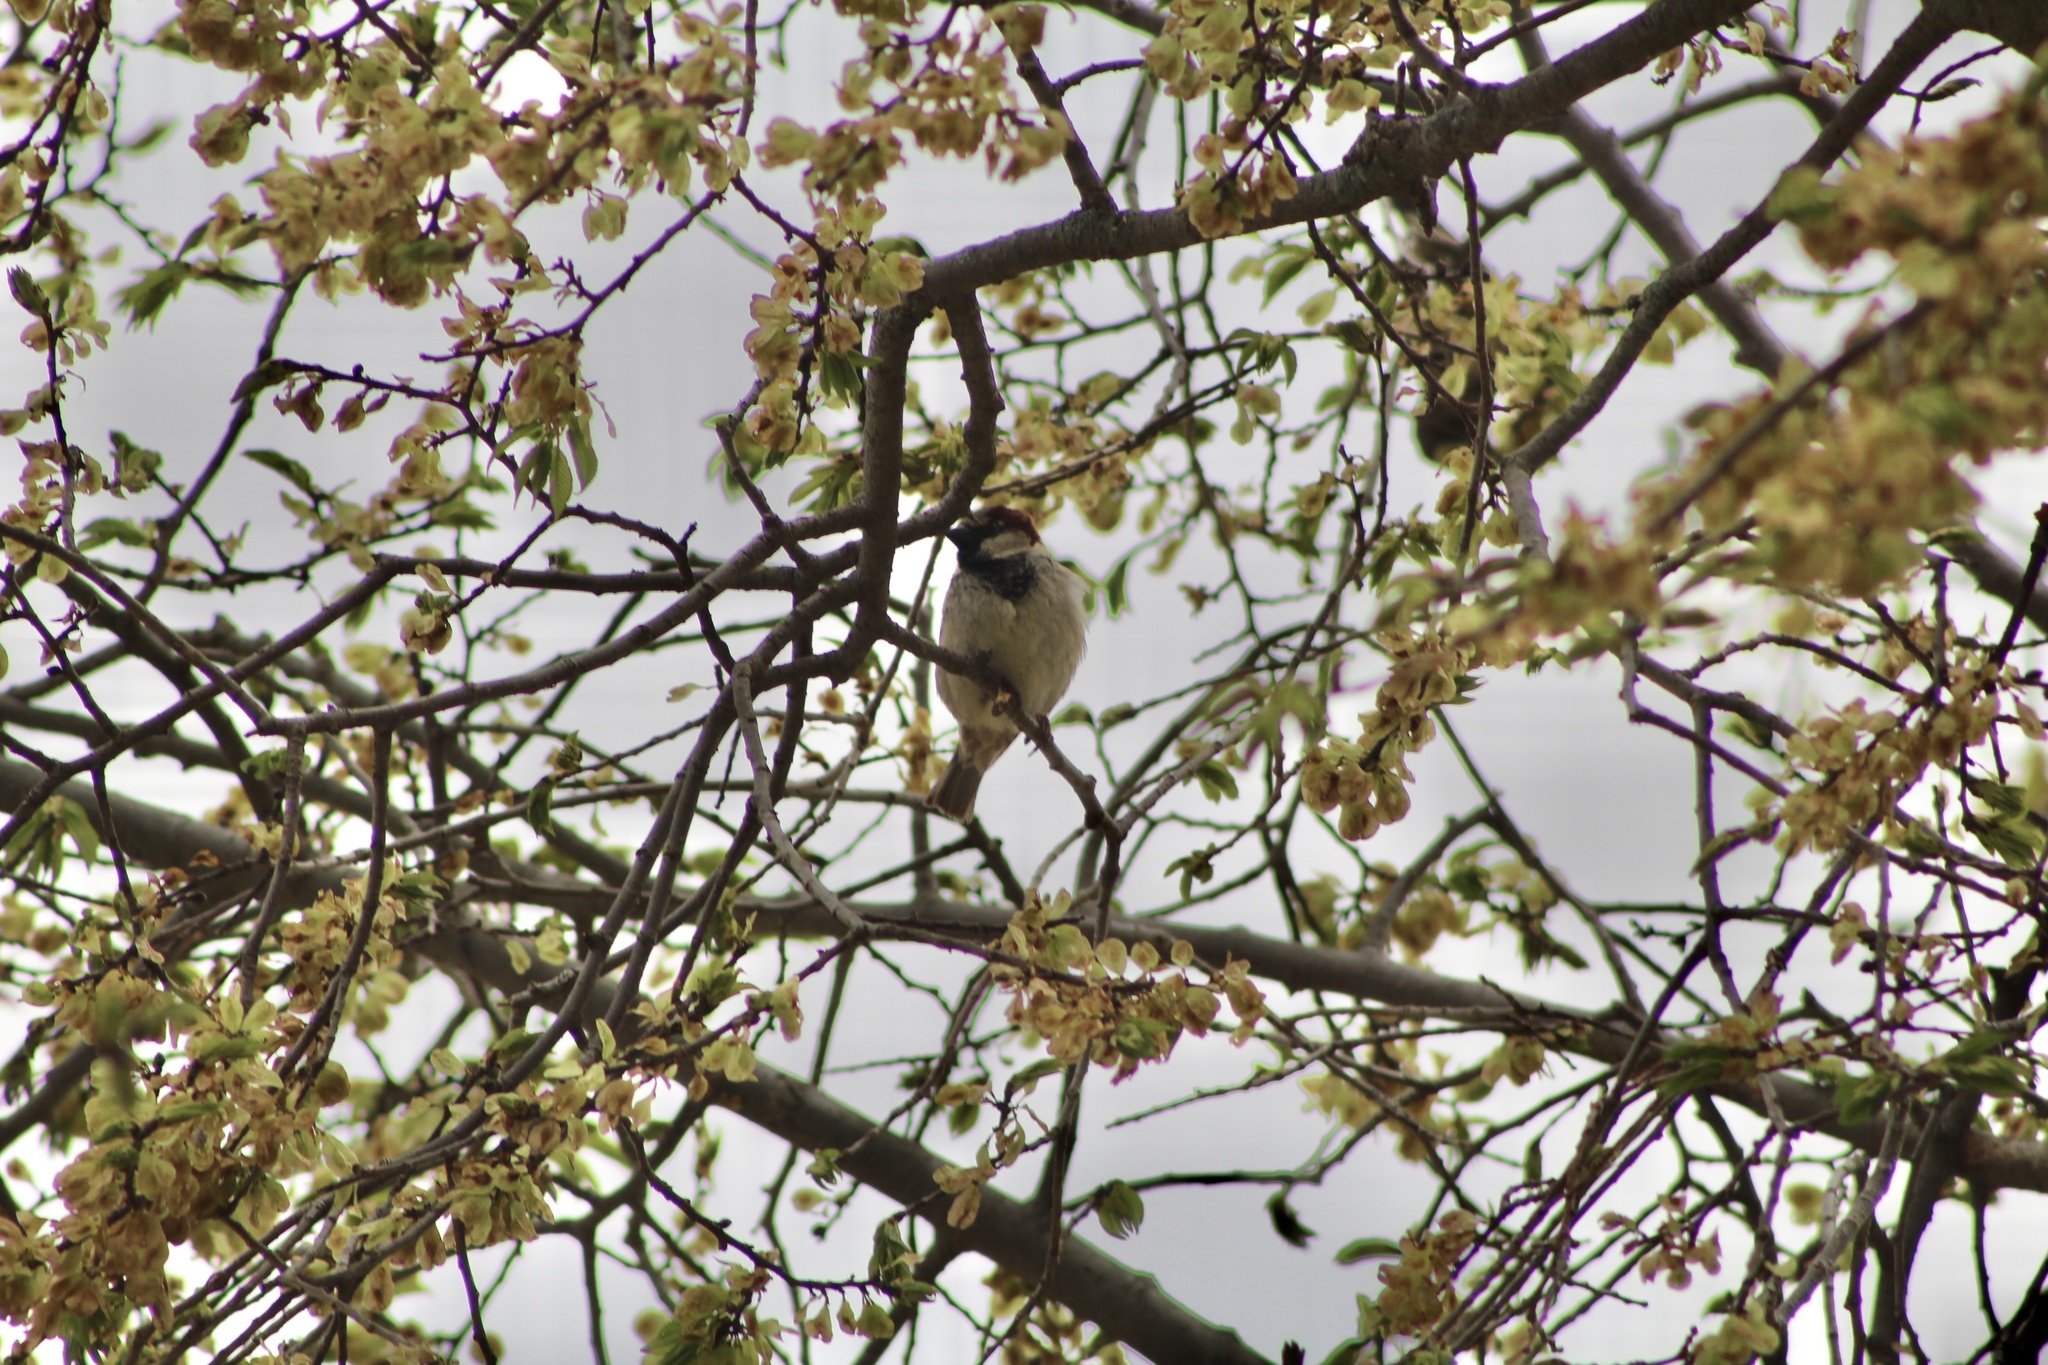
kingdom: Animalia
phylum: Chordata
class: Aves
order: Passeriformes
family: Passeridae
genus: Passer
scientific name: Passer domesticus
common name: House sparrow
